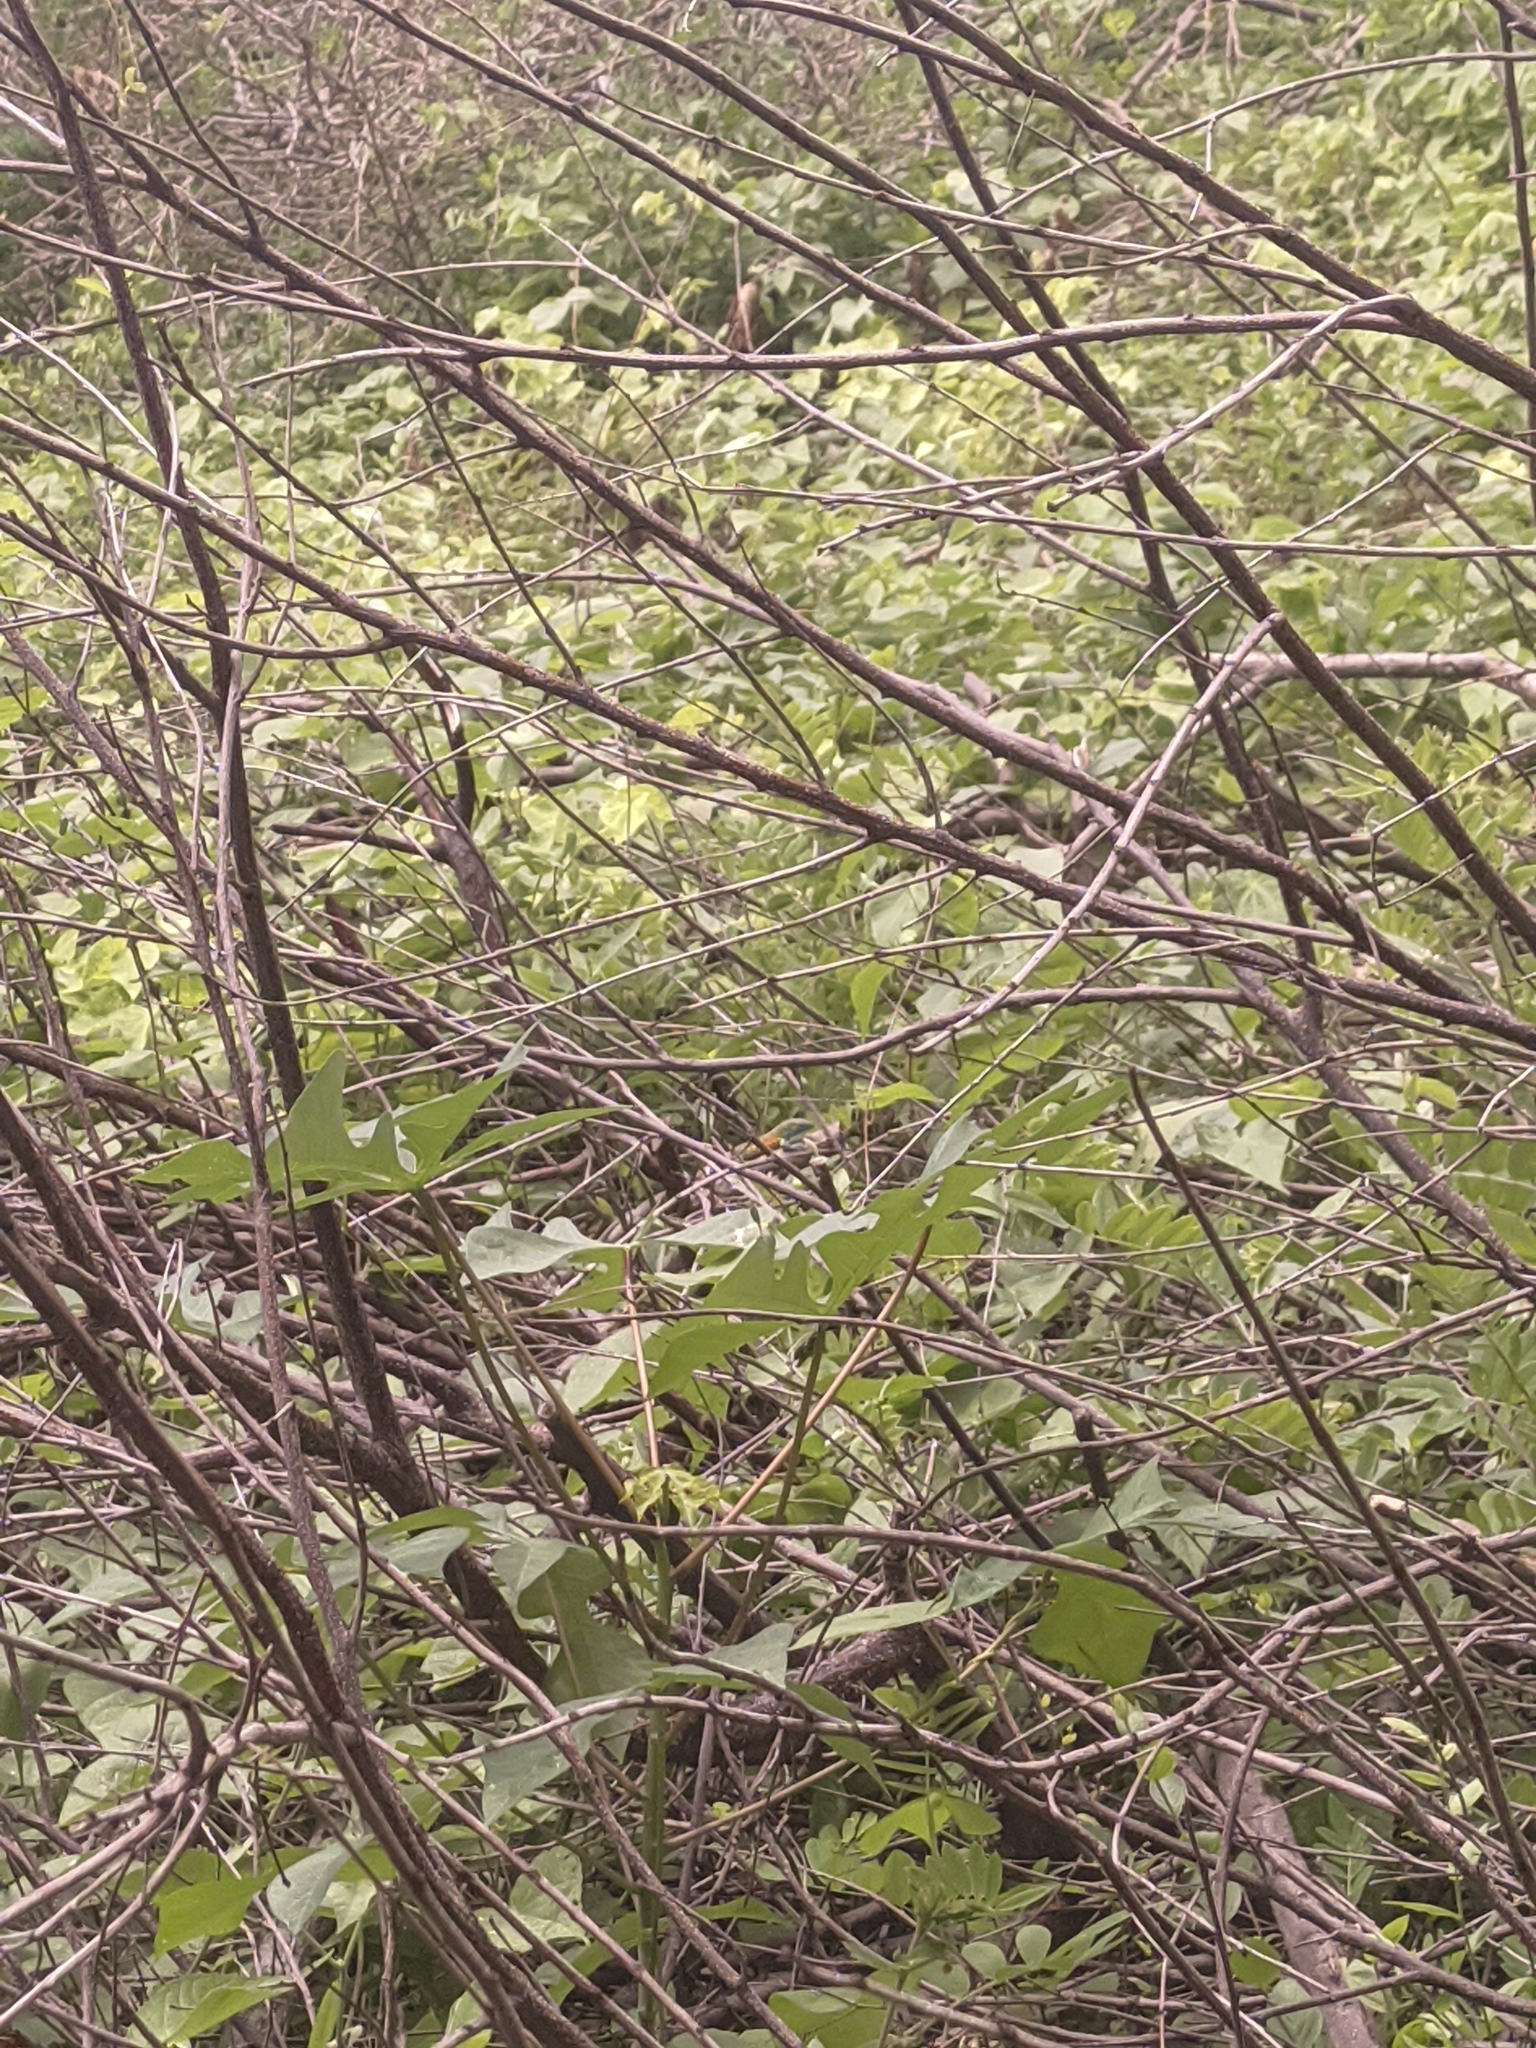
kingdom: Animalia
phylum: Chordata
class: Squamata
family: Teiidae
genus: Cnemidophorus
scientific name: Cnemidophorus gaigei
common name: Gaige’s rainbow lizard
